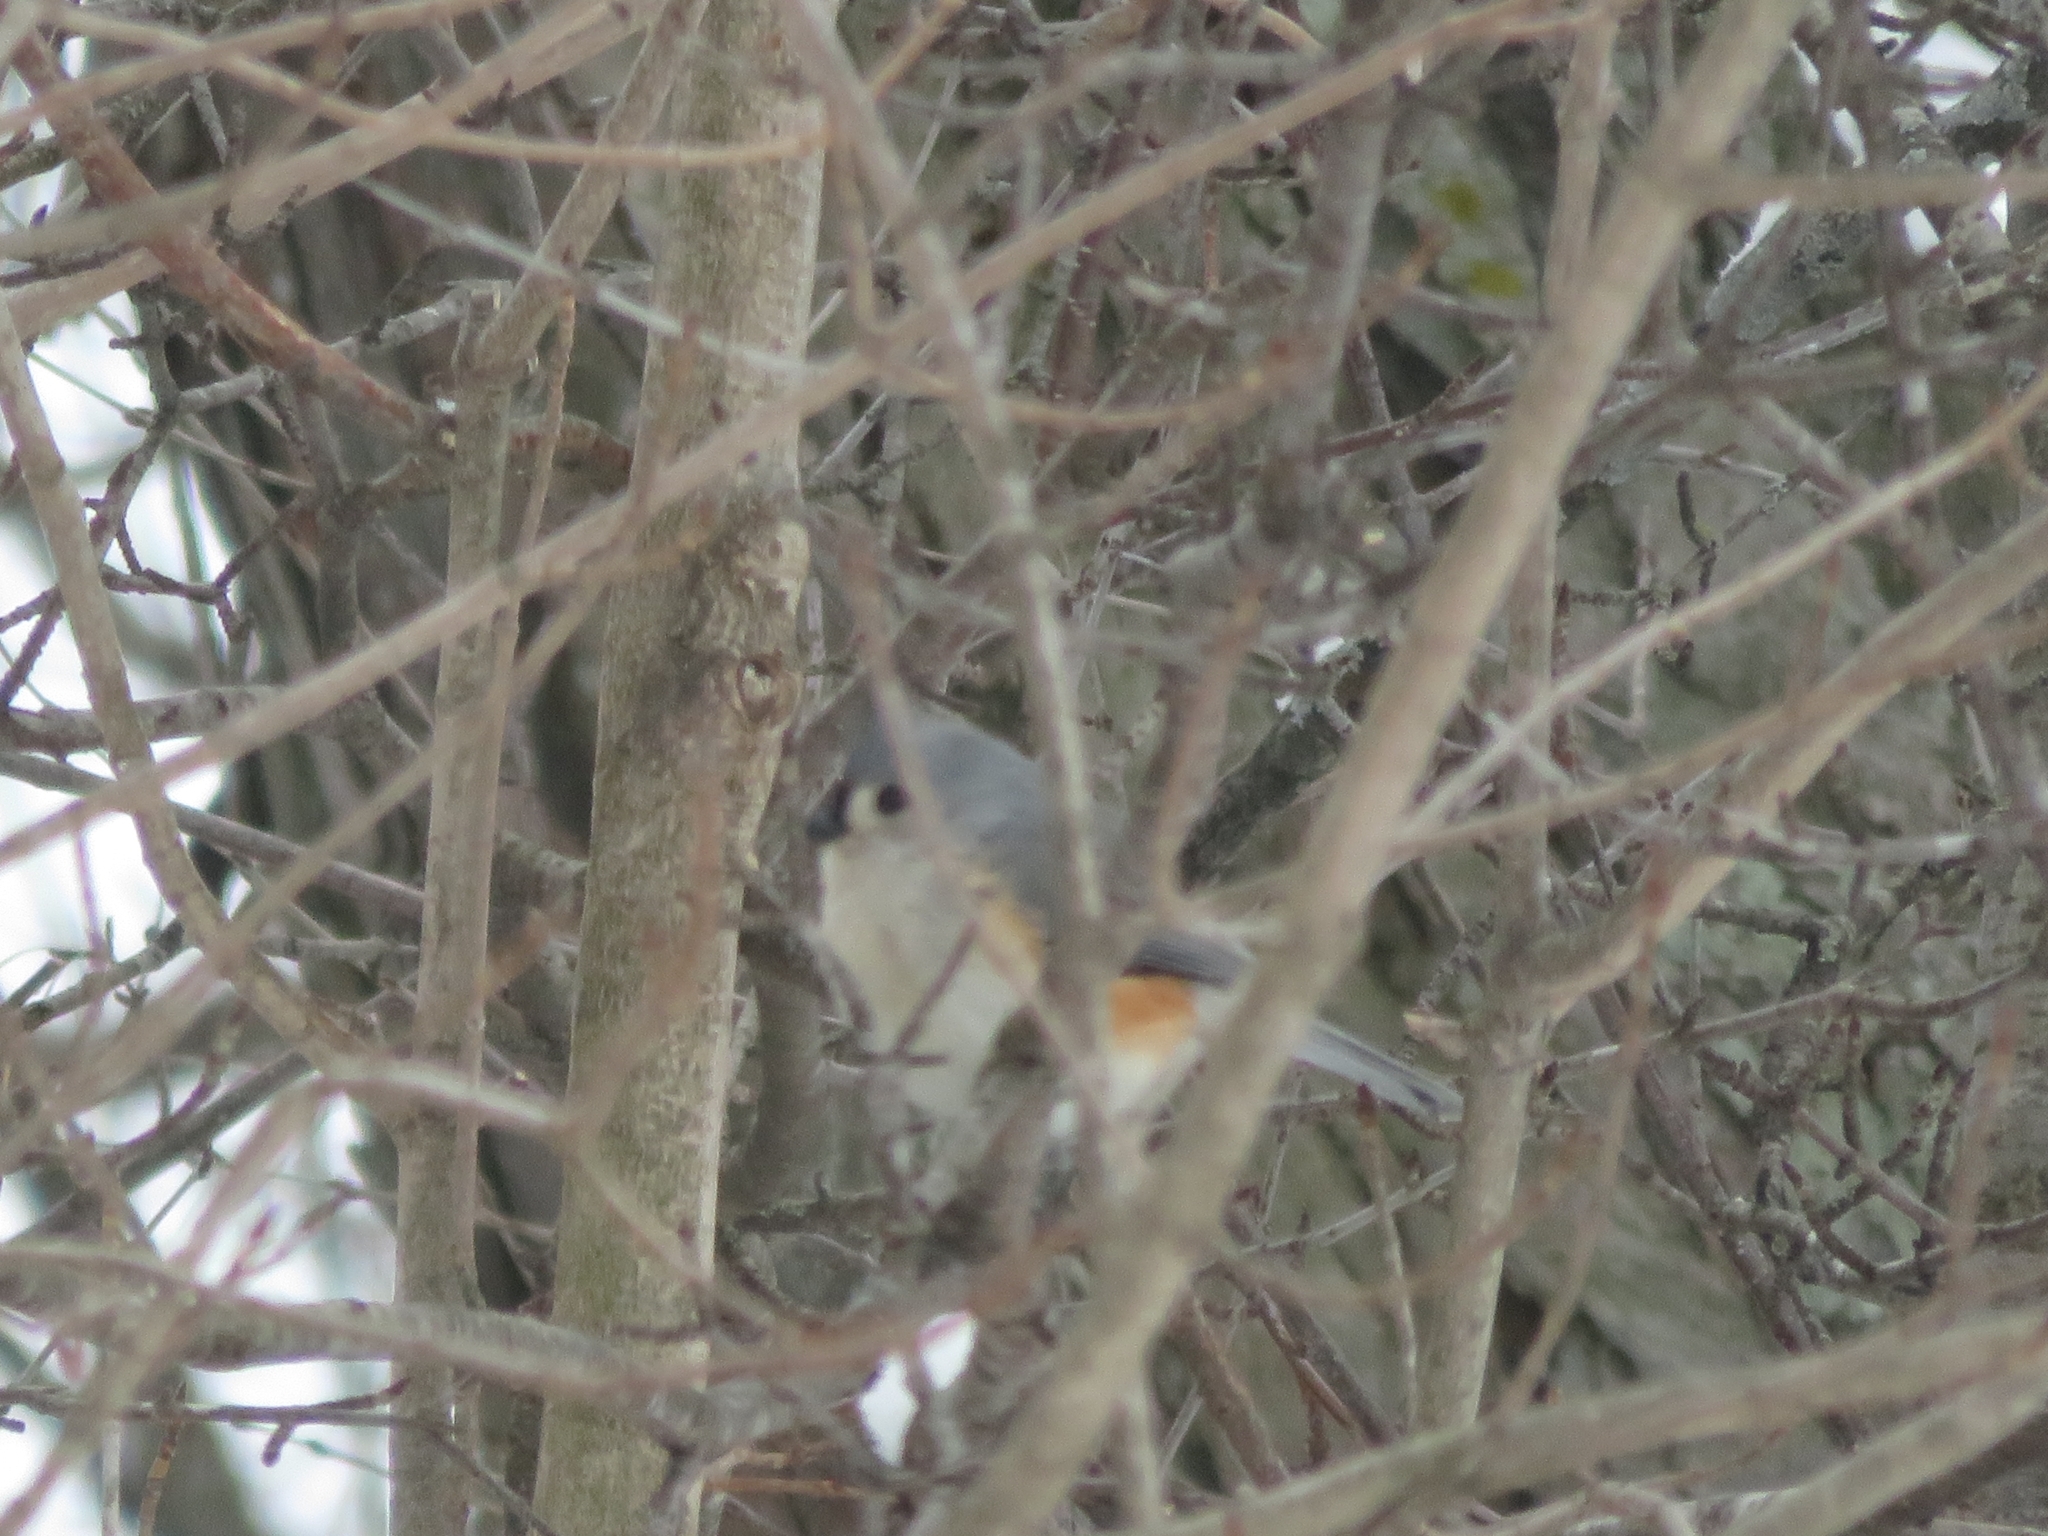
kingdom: Animalia
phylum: Chordata
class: Aves
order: Passeriformes
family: Paridae
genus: Baeolophus
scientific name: Baeolophus bicolor
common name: Tufted titmouse
